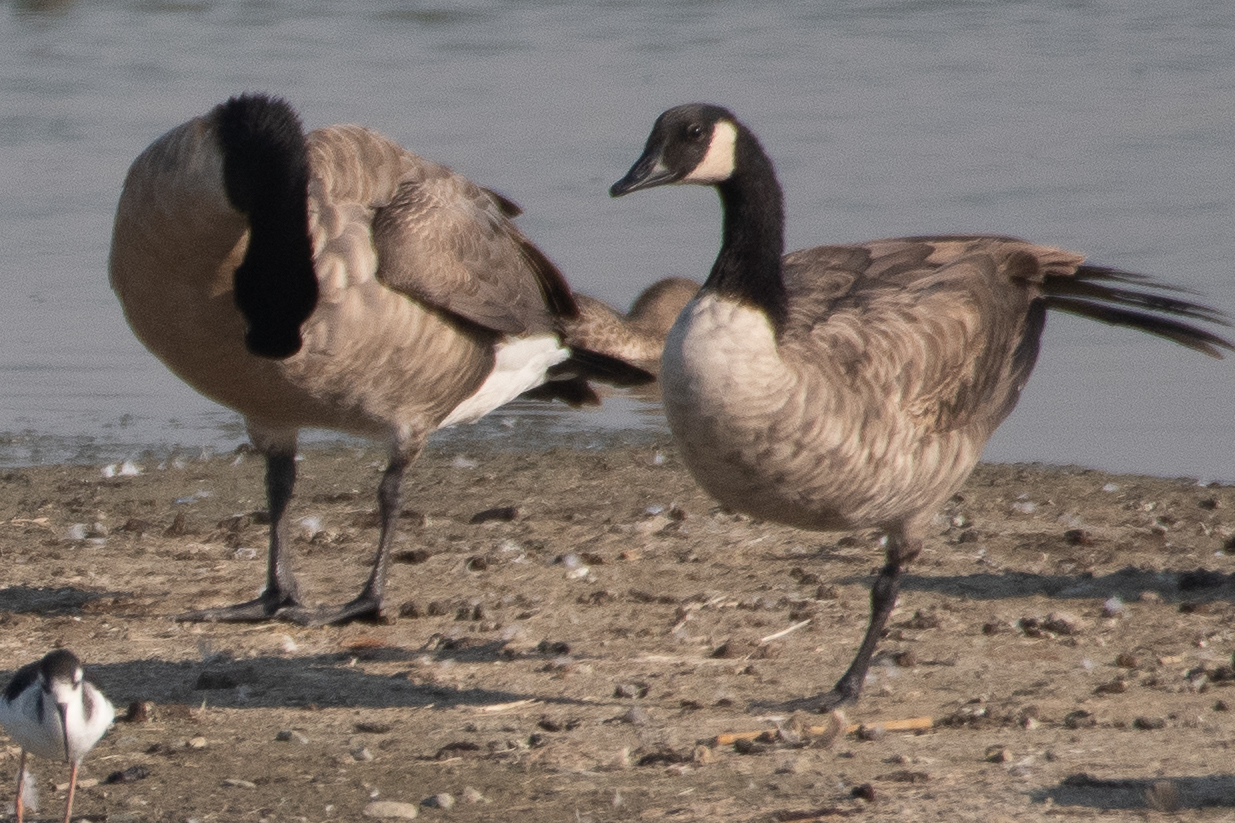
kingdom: Animalia
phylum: Chordata
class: Aves
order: Anseriformes
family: Anatidae
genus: Branta
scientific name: Branta canadensis
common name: Canada goose
